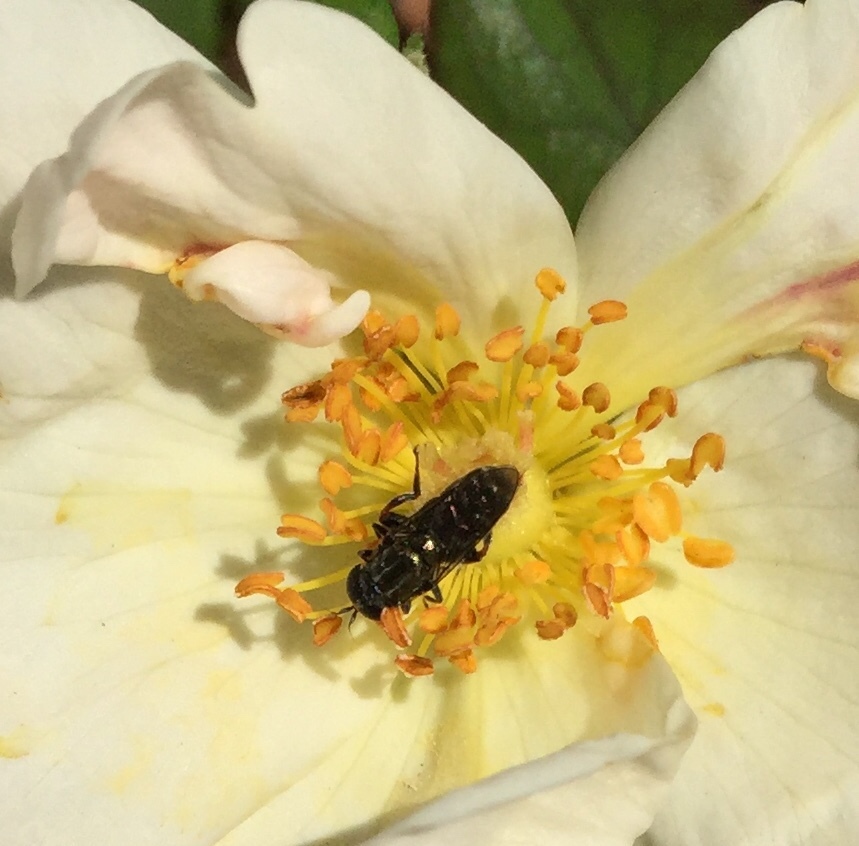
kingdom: Animalia
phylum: Arthropoda
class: Insecta
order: Diptera
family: Syrphidae
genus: Eumerus
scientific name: Eumerus
